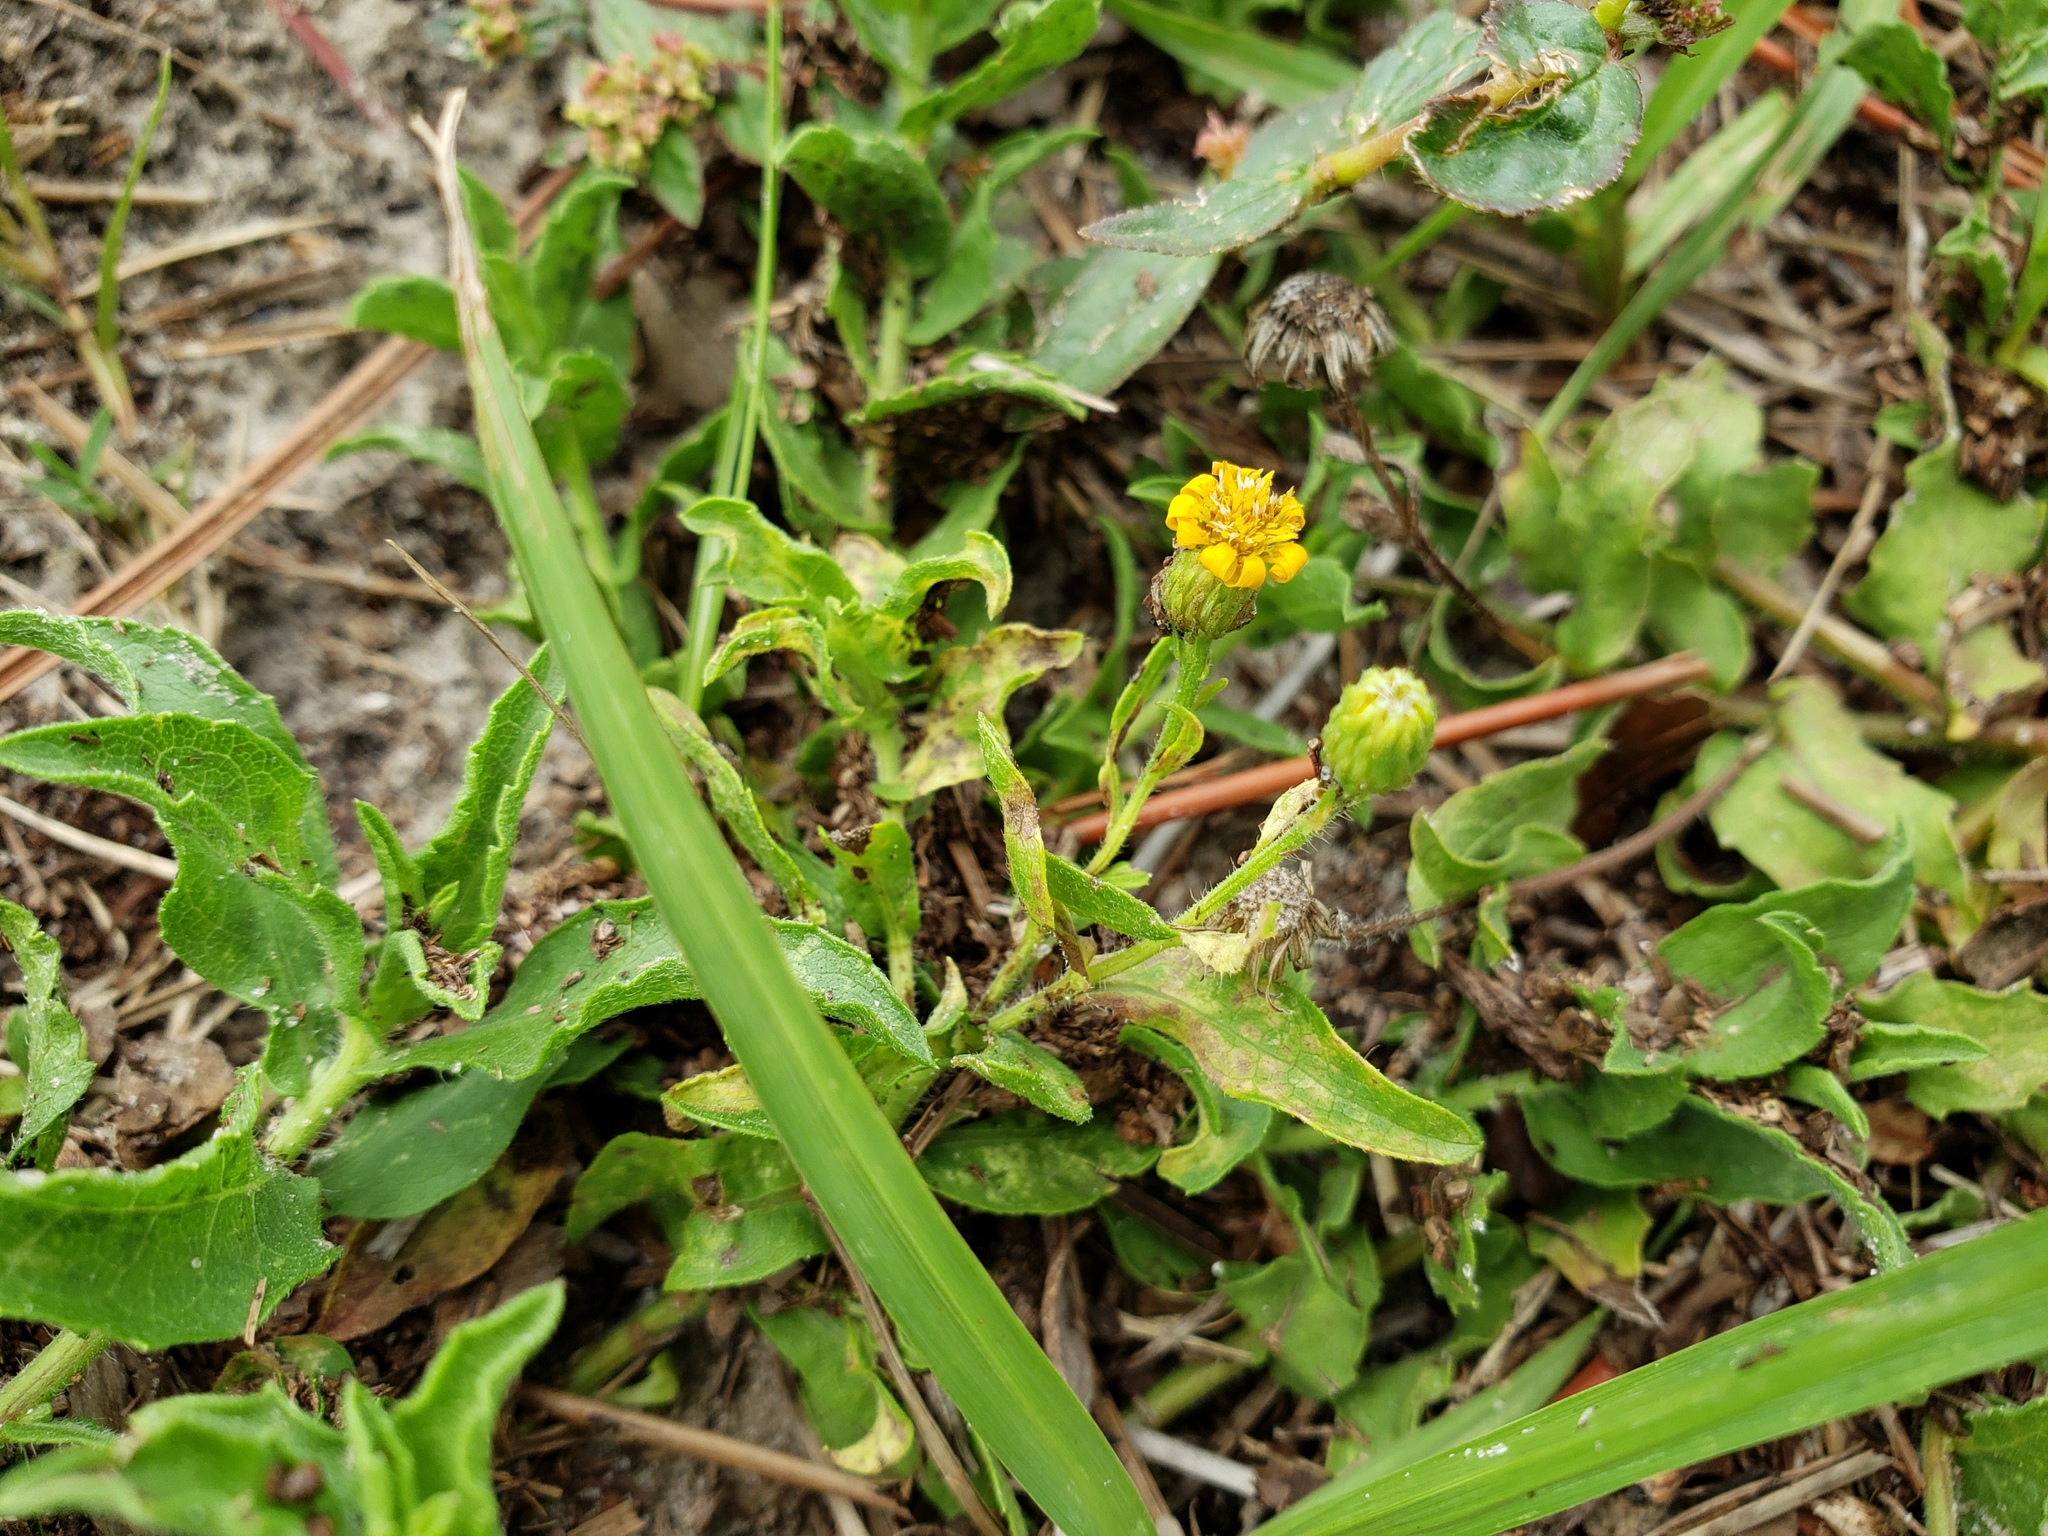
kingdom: Plantae
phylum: Tracheophyta
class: Magnoliopsida
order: Asterales
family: Asteraceae
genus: Heterotheca
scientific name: Heterotheca subaxillaris
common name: Camphorweed
